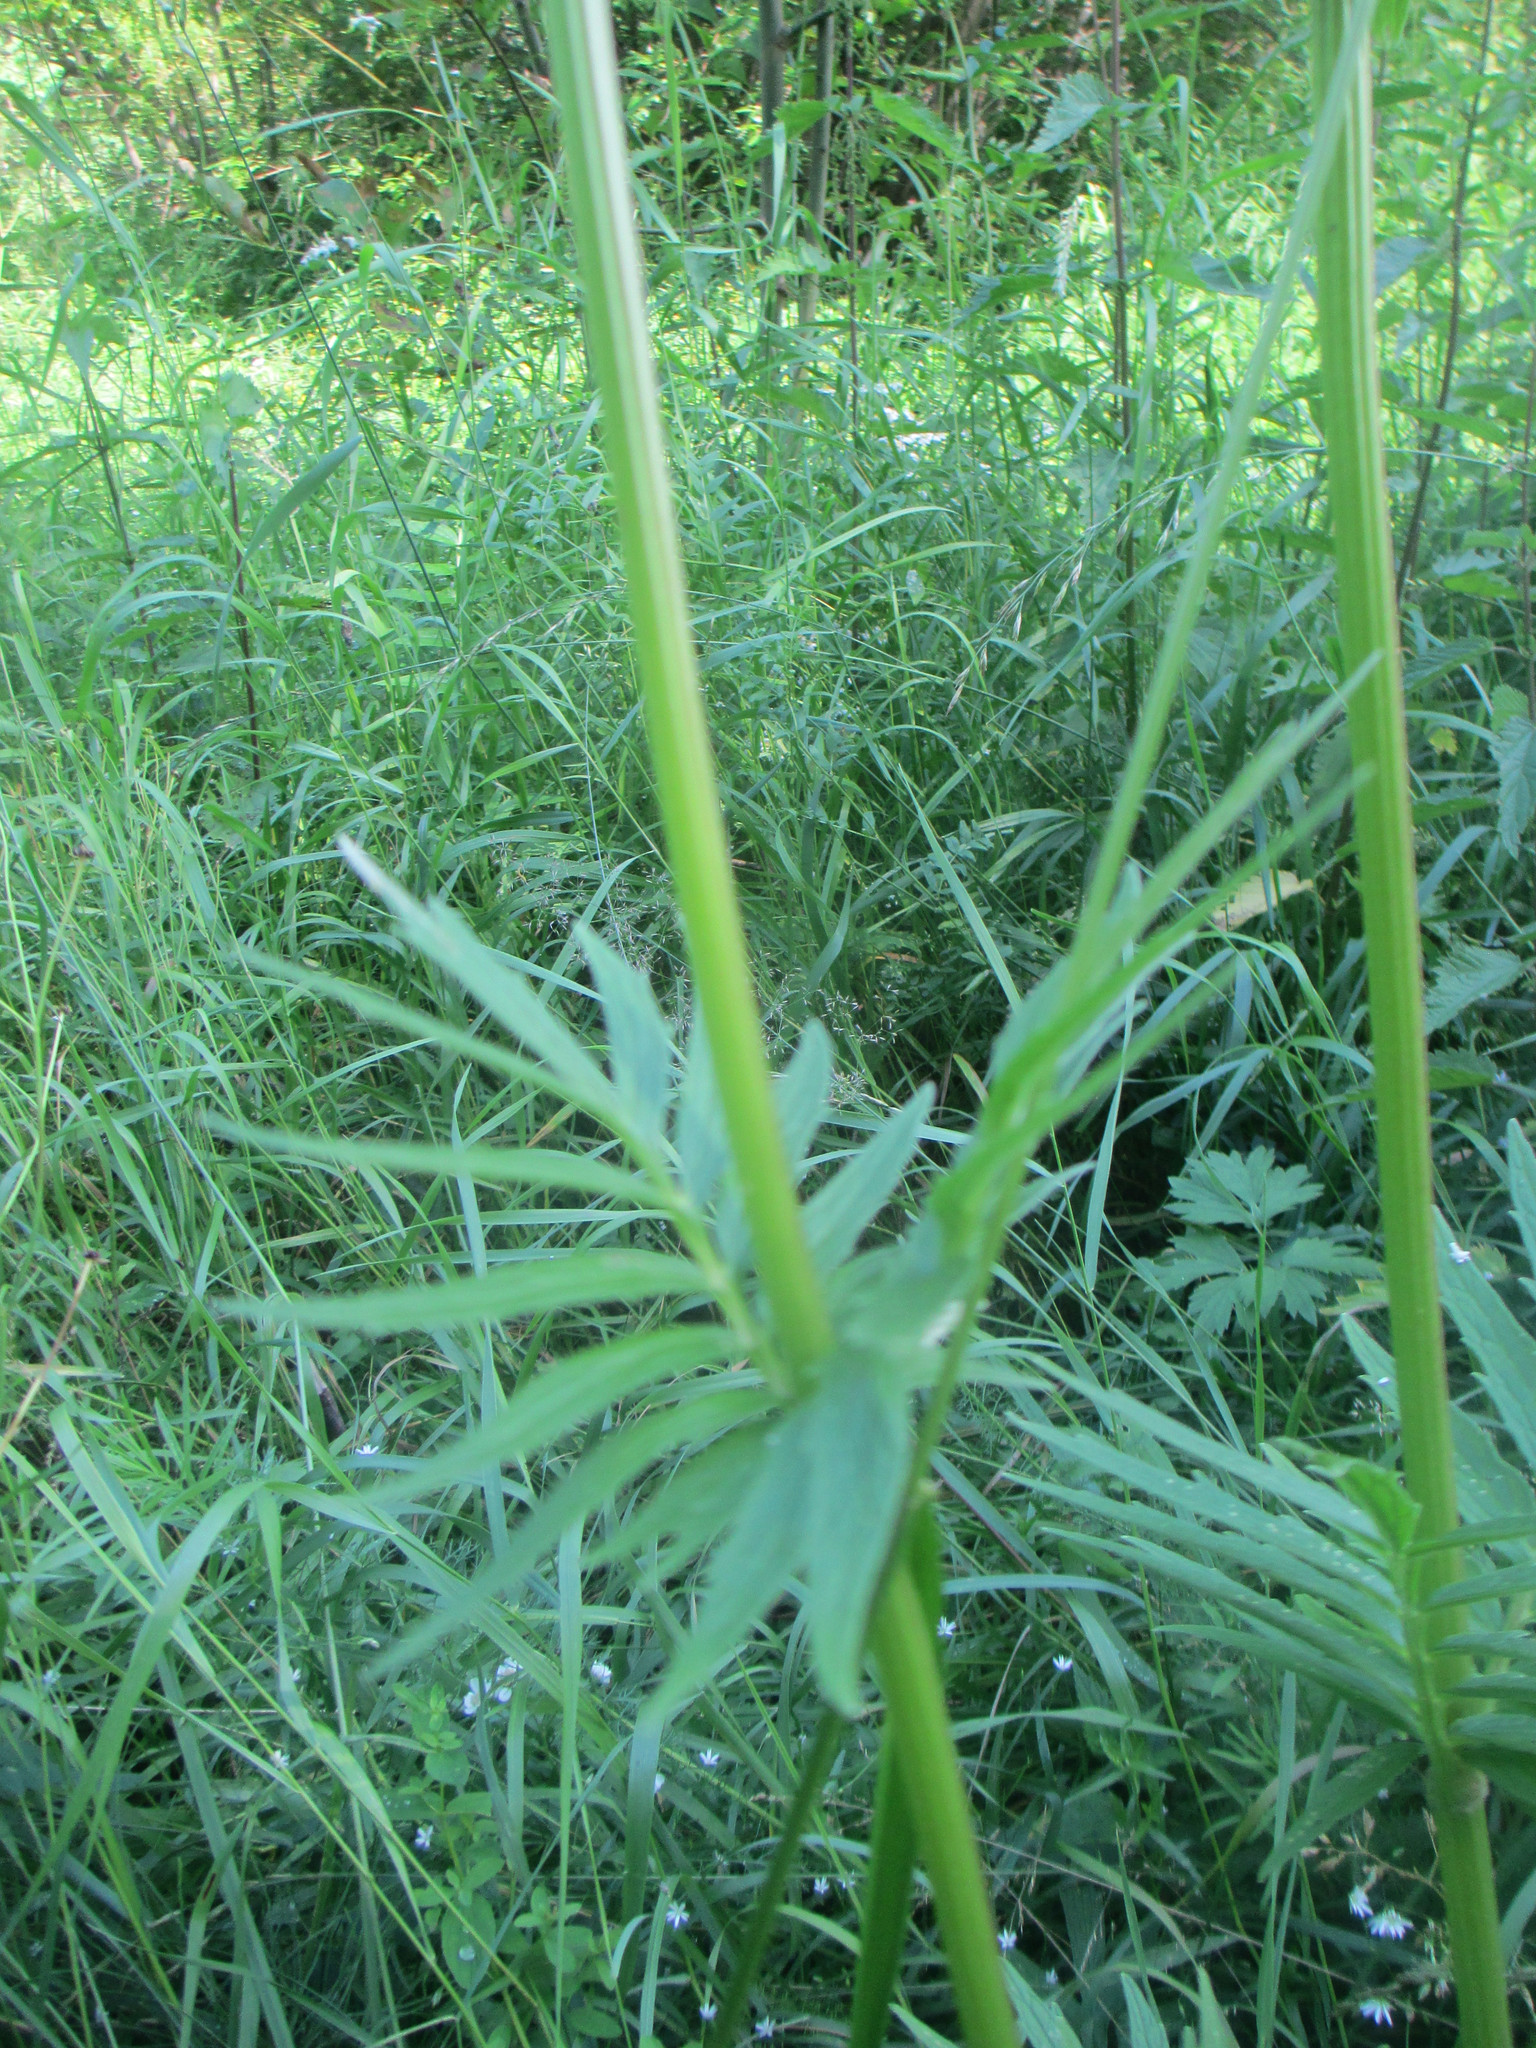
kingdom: Plantae
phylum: Tracheophyta
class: Magnoliopsida
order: Dipsacales
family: Caprifoliaceae
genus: Valeriana
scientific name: Valeriana officinalis
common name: Common valerian
